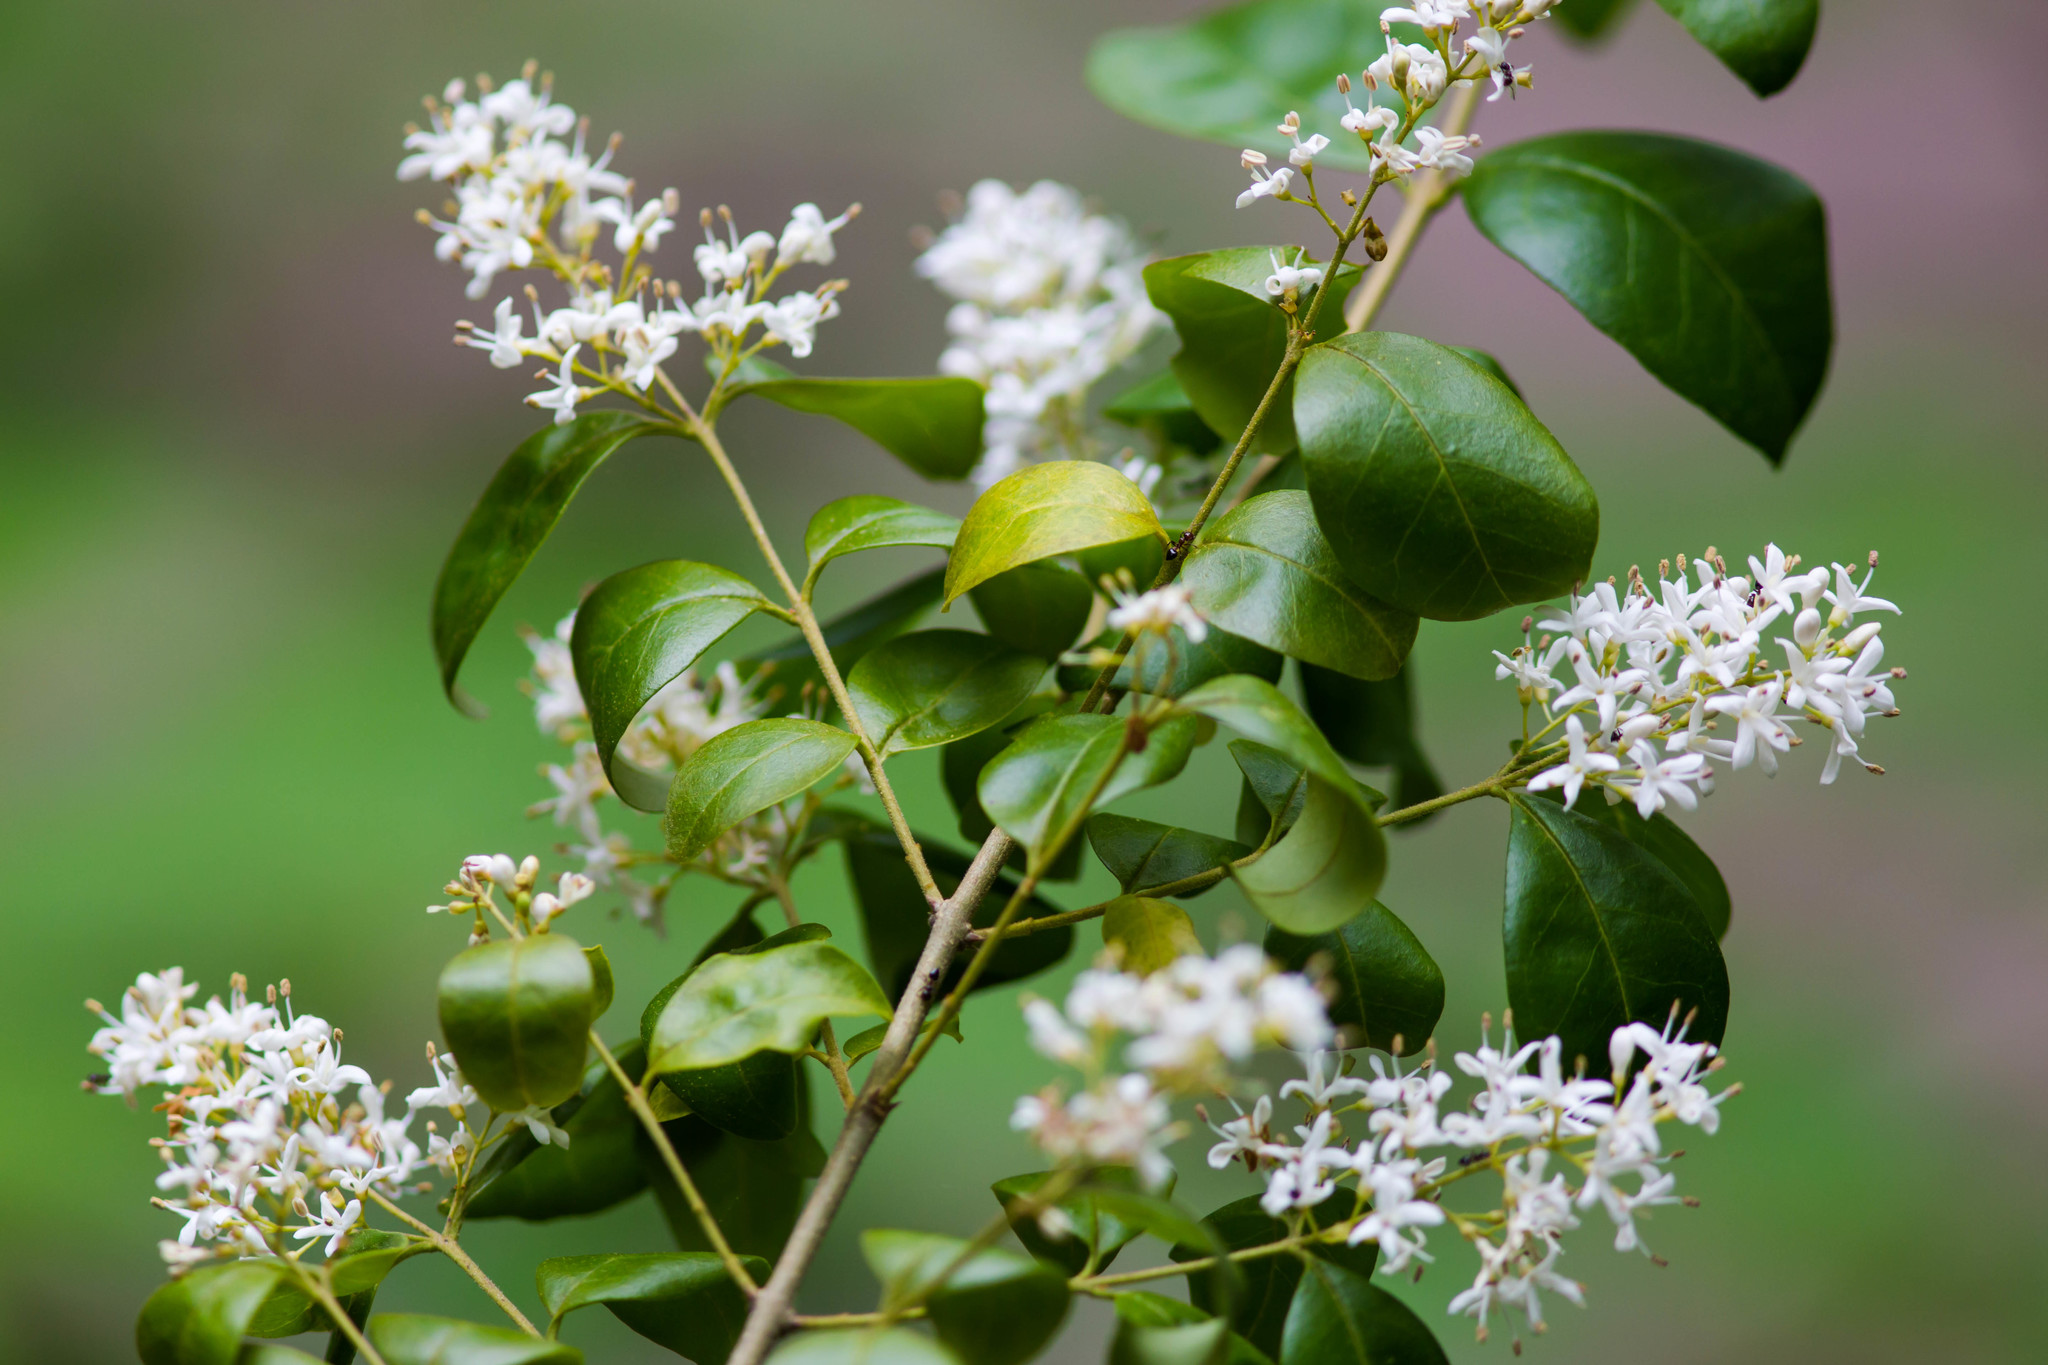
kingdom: Plantae
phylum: Tracheophyta
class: Magnoliopsida
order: Lamiales
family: Oleaceae
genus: Ligustrum
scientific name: Ligustrum sinense
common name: Chinese privet
